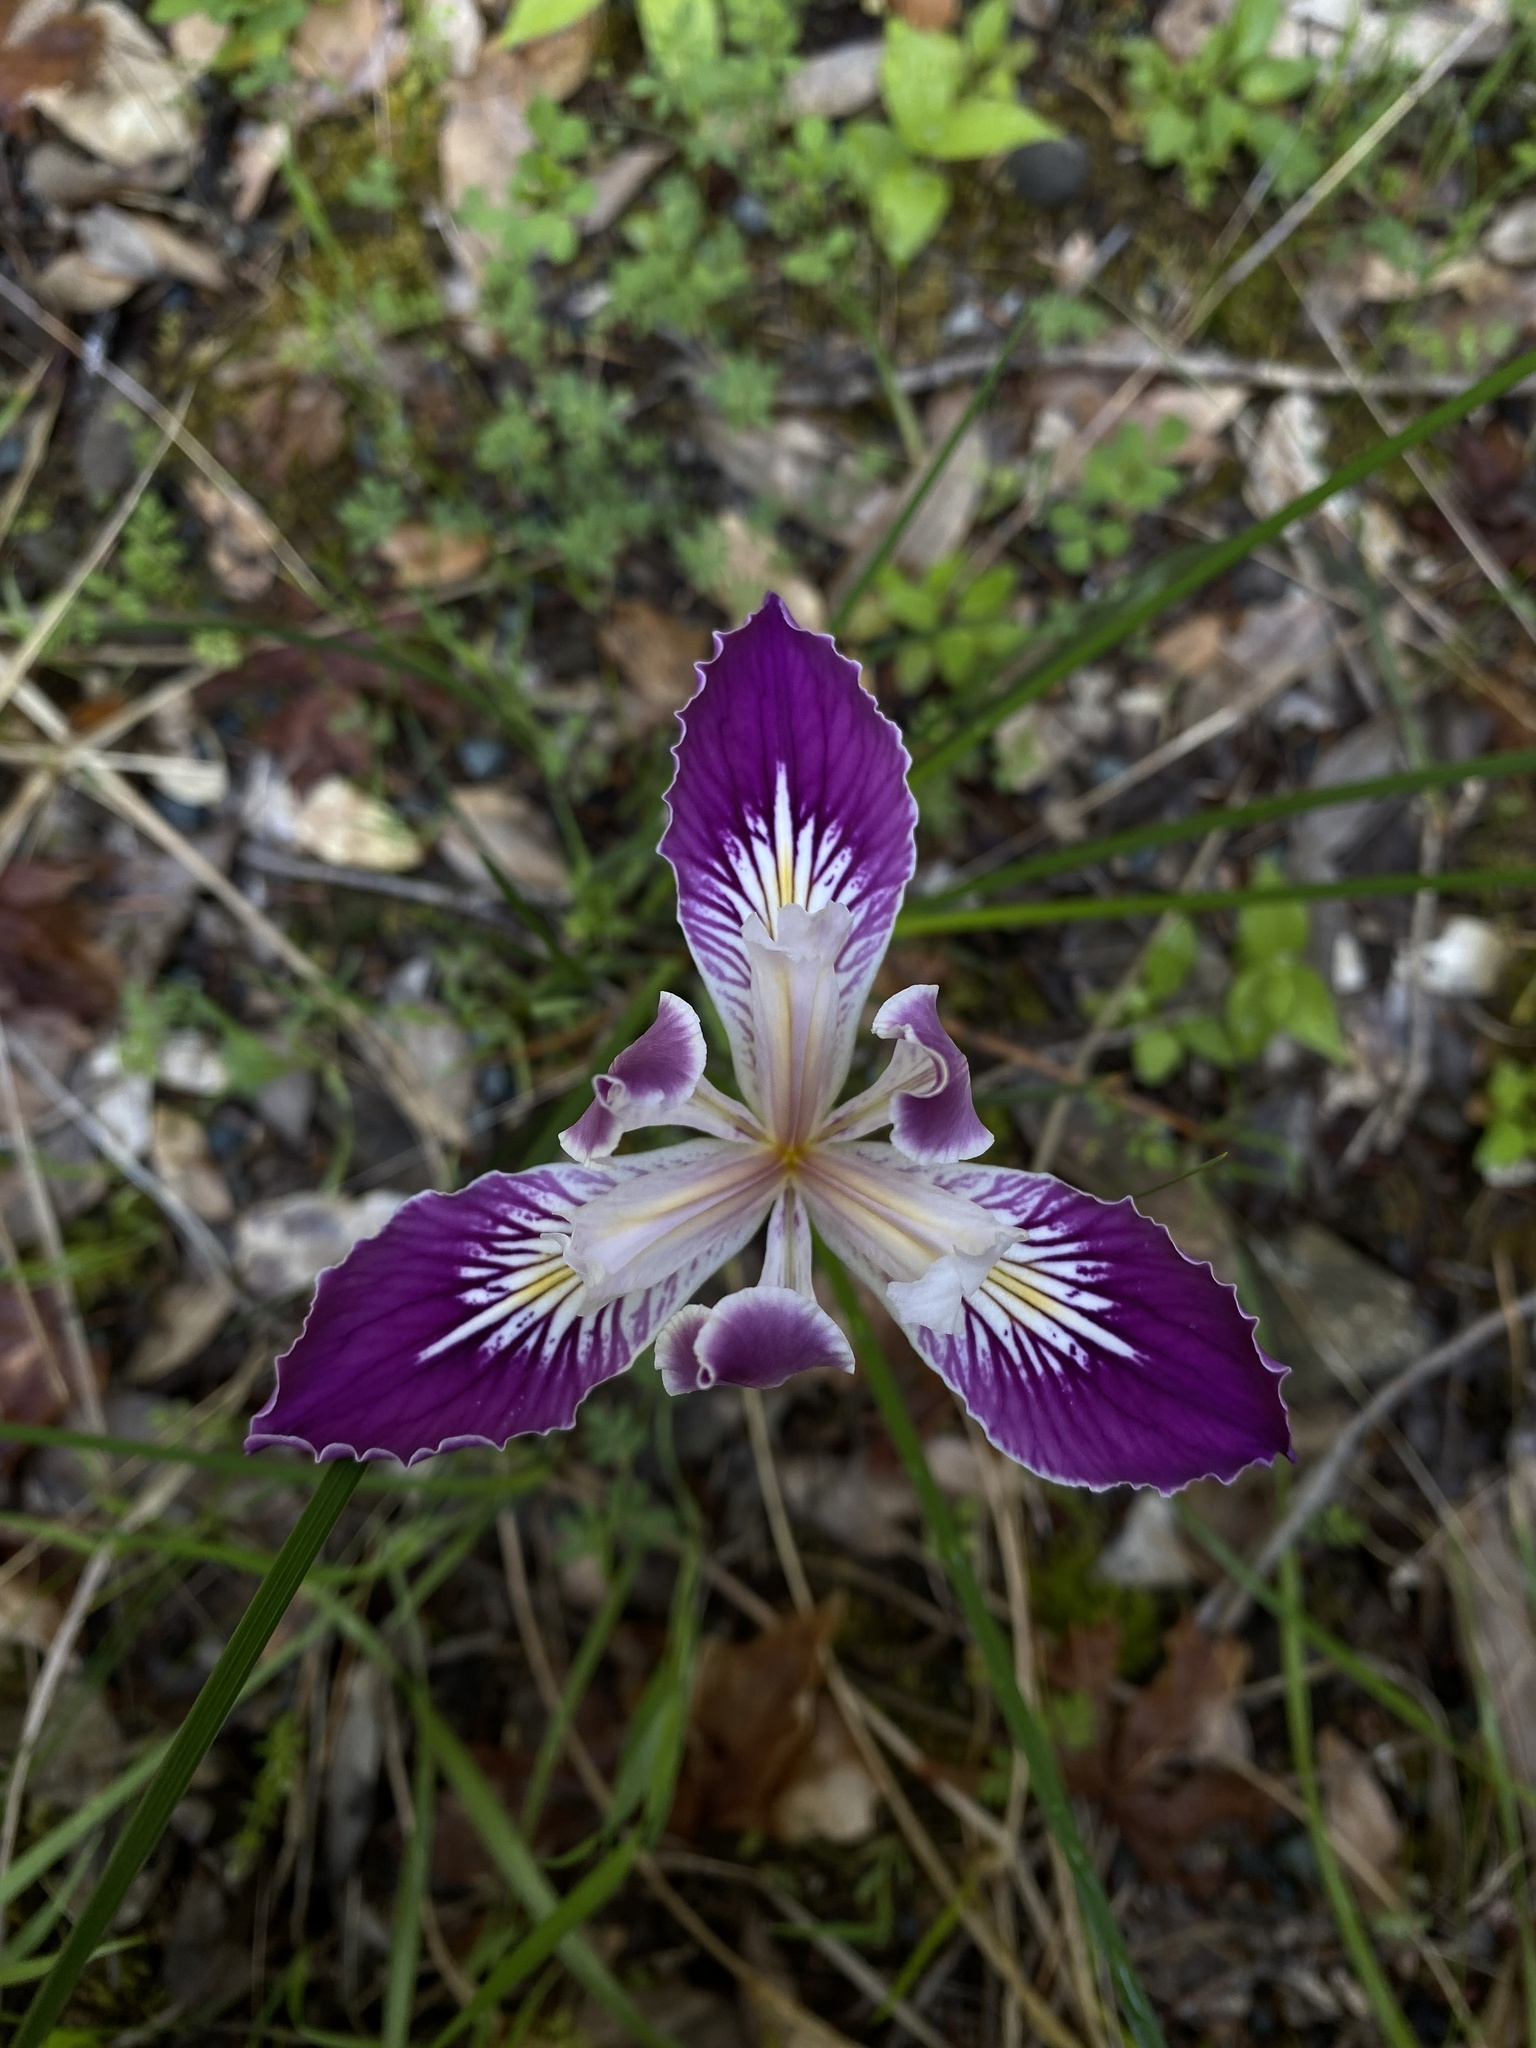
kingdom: Plantae
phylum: Tracheophyta
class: Liliopsida
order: Asparagales
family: Iridaceae
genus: Iris
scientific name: Iris thompsonii
